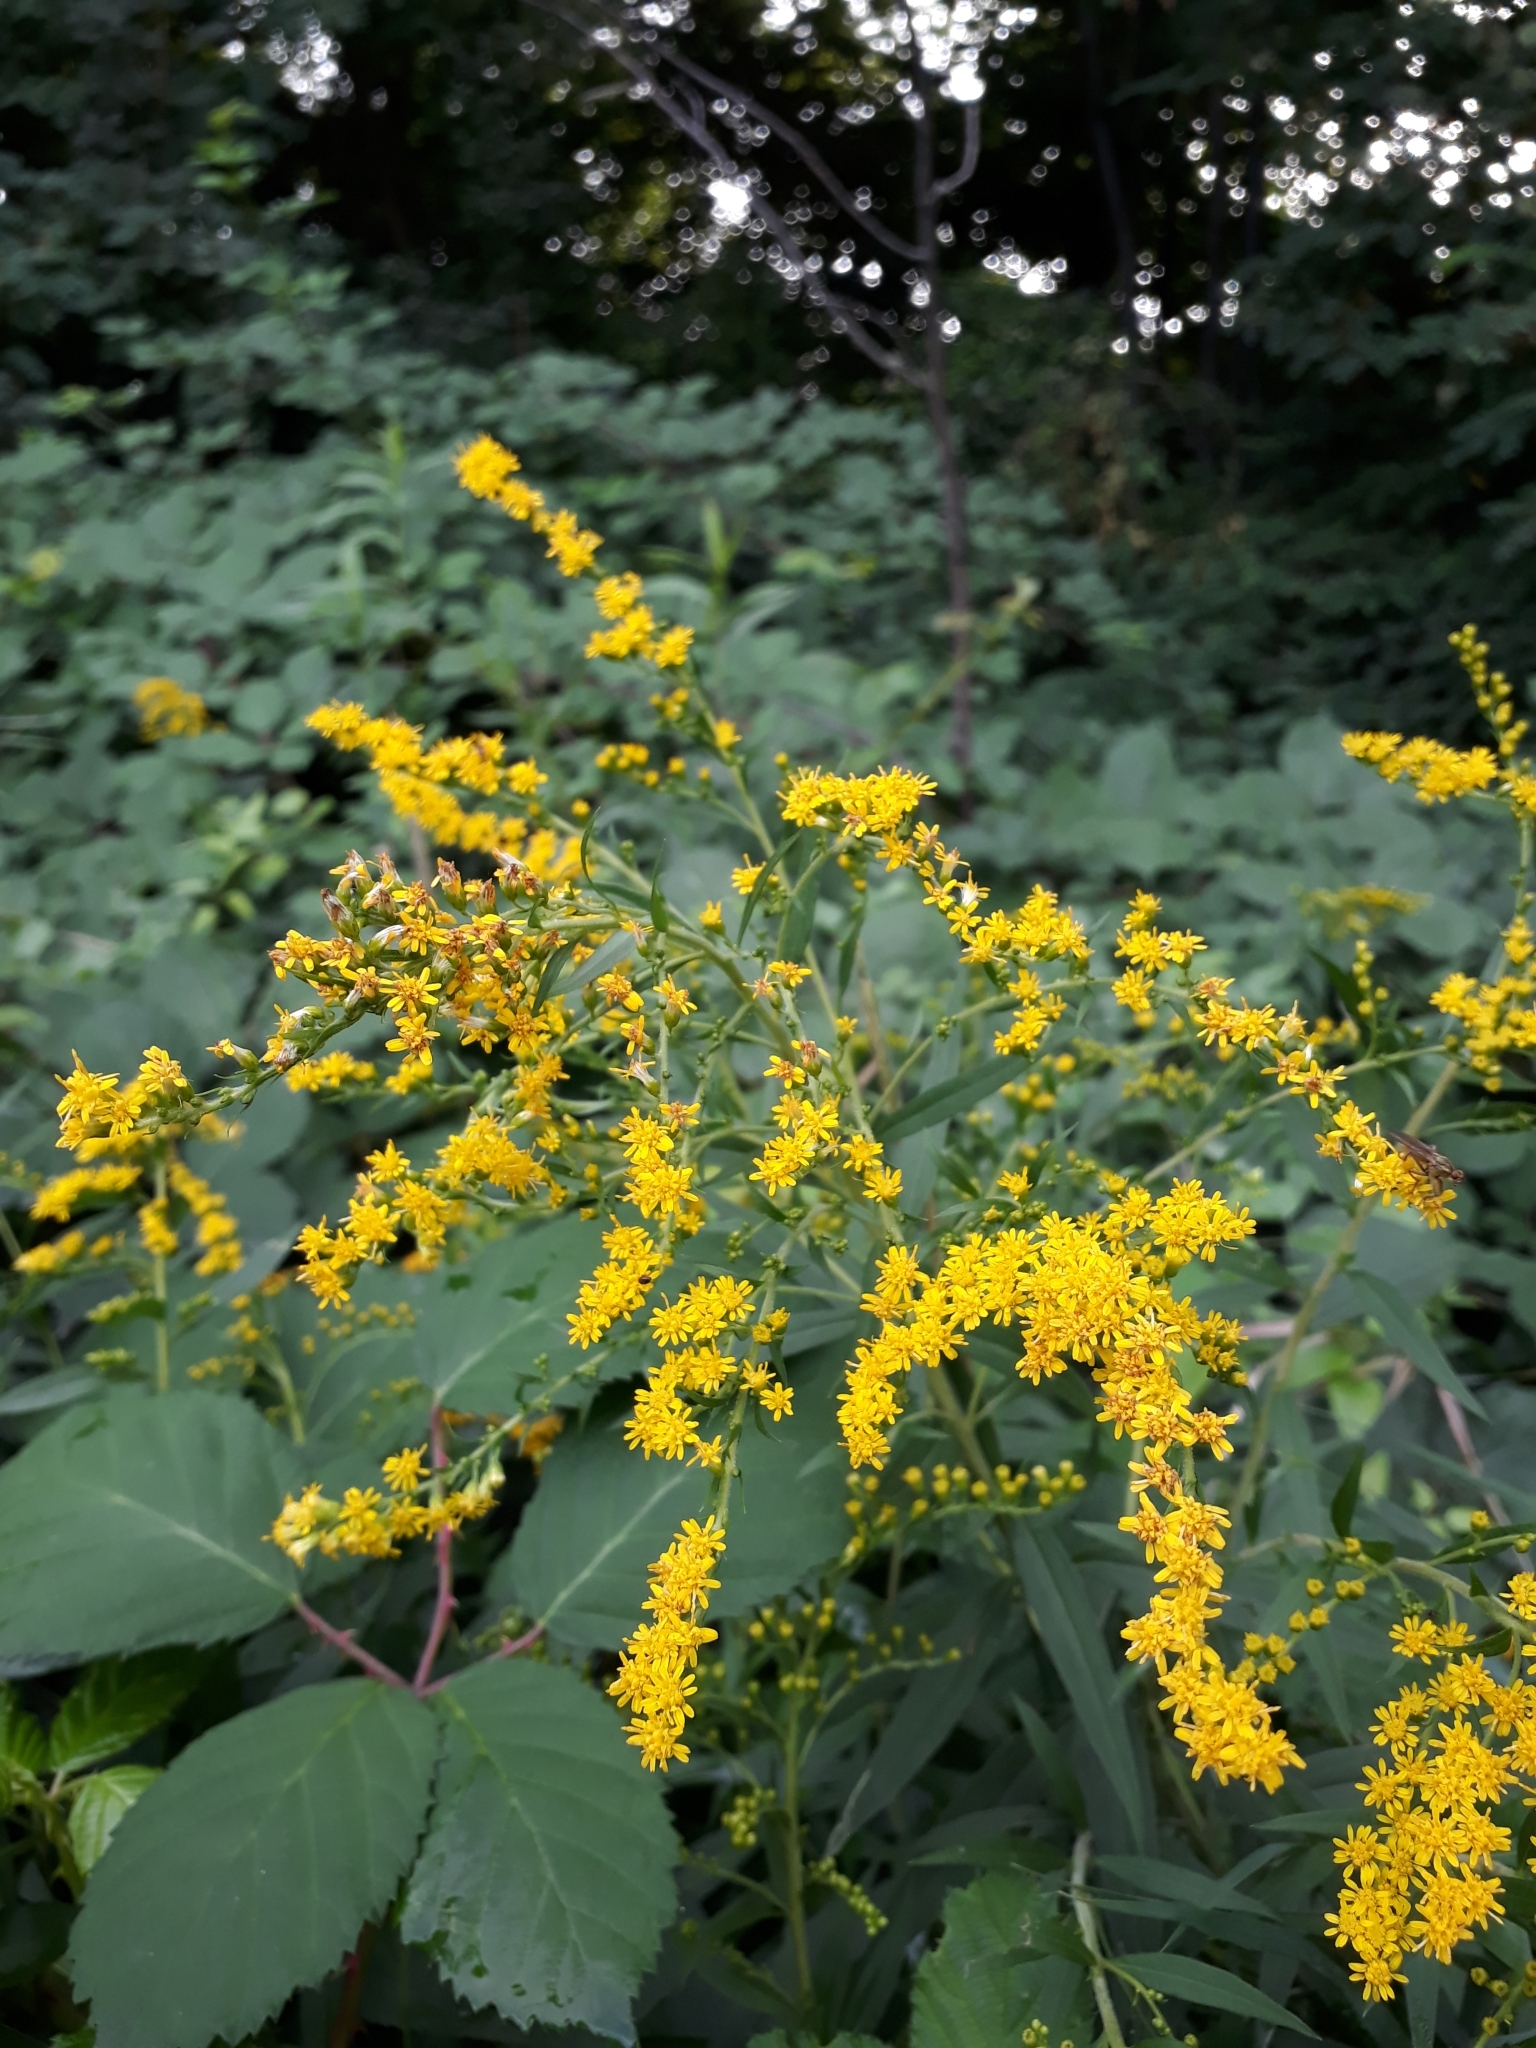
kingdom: Plantae
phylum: Tracheophyta
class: Magnoliopsida
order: Asterales
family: Asteraceae
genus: Solidago
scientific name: Solidago canadensis
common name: Canada goldenrod
